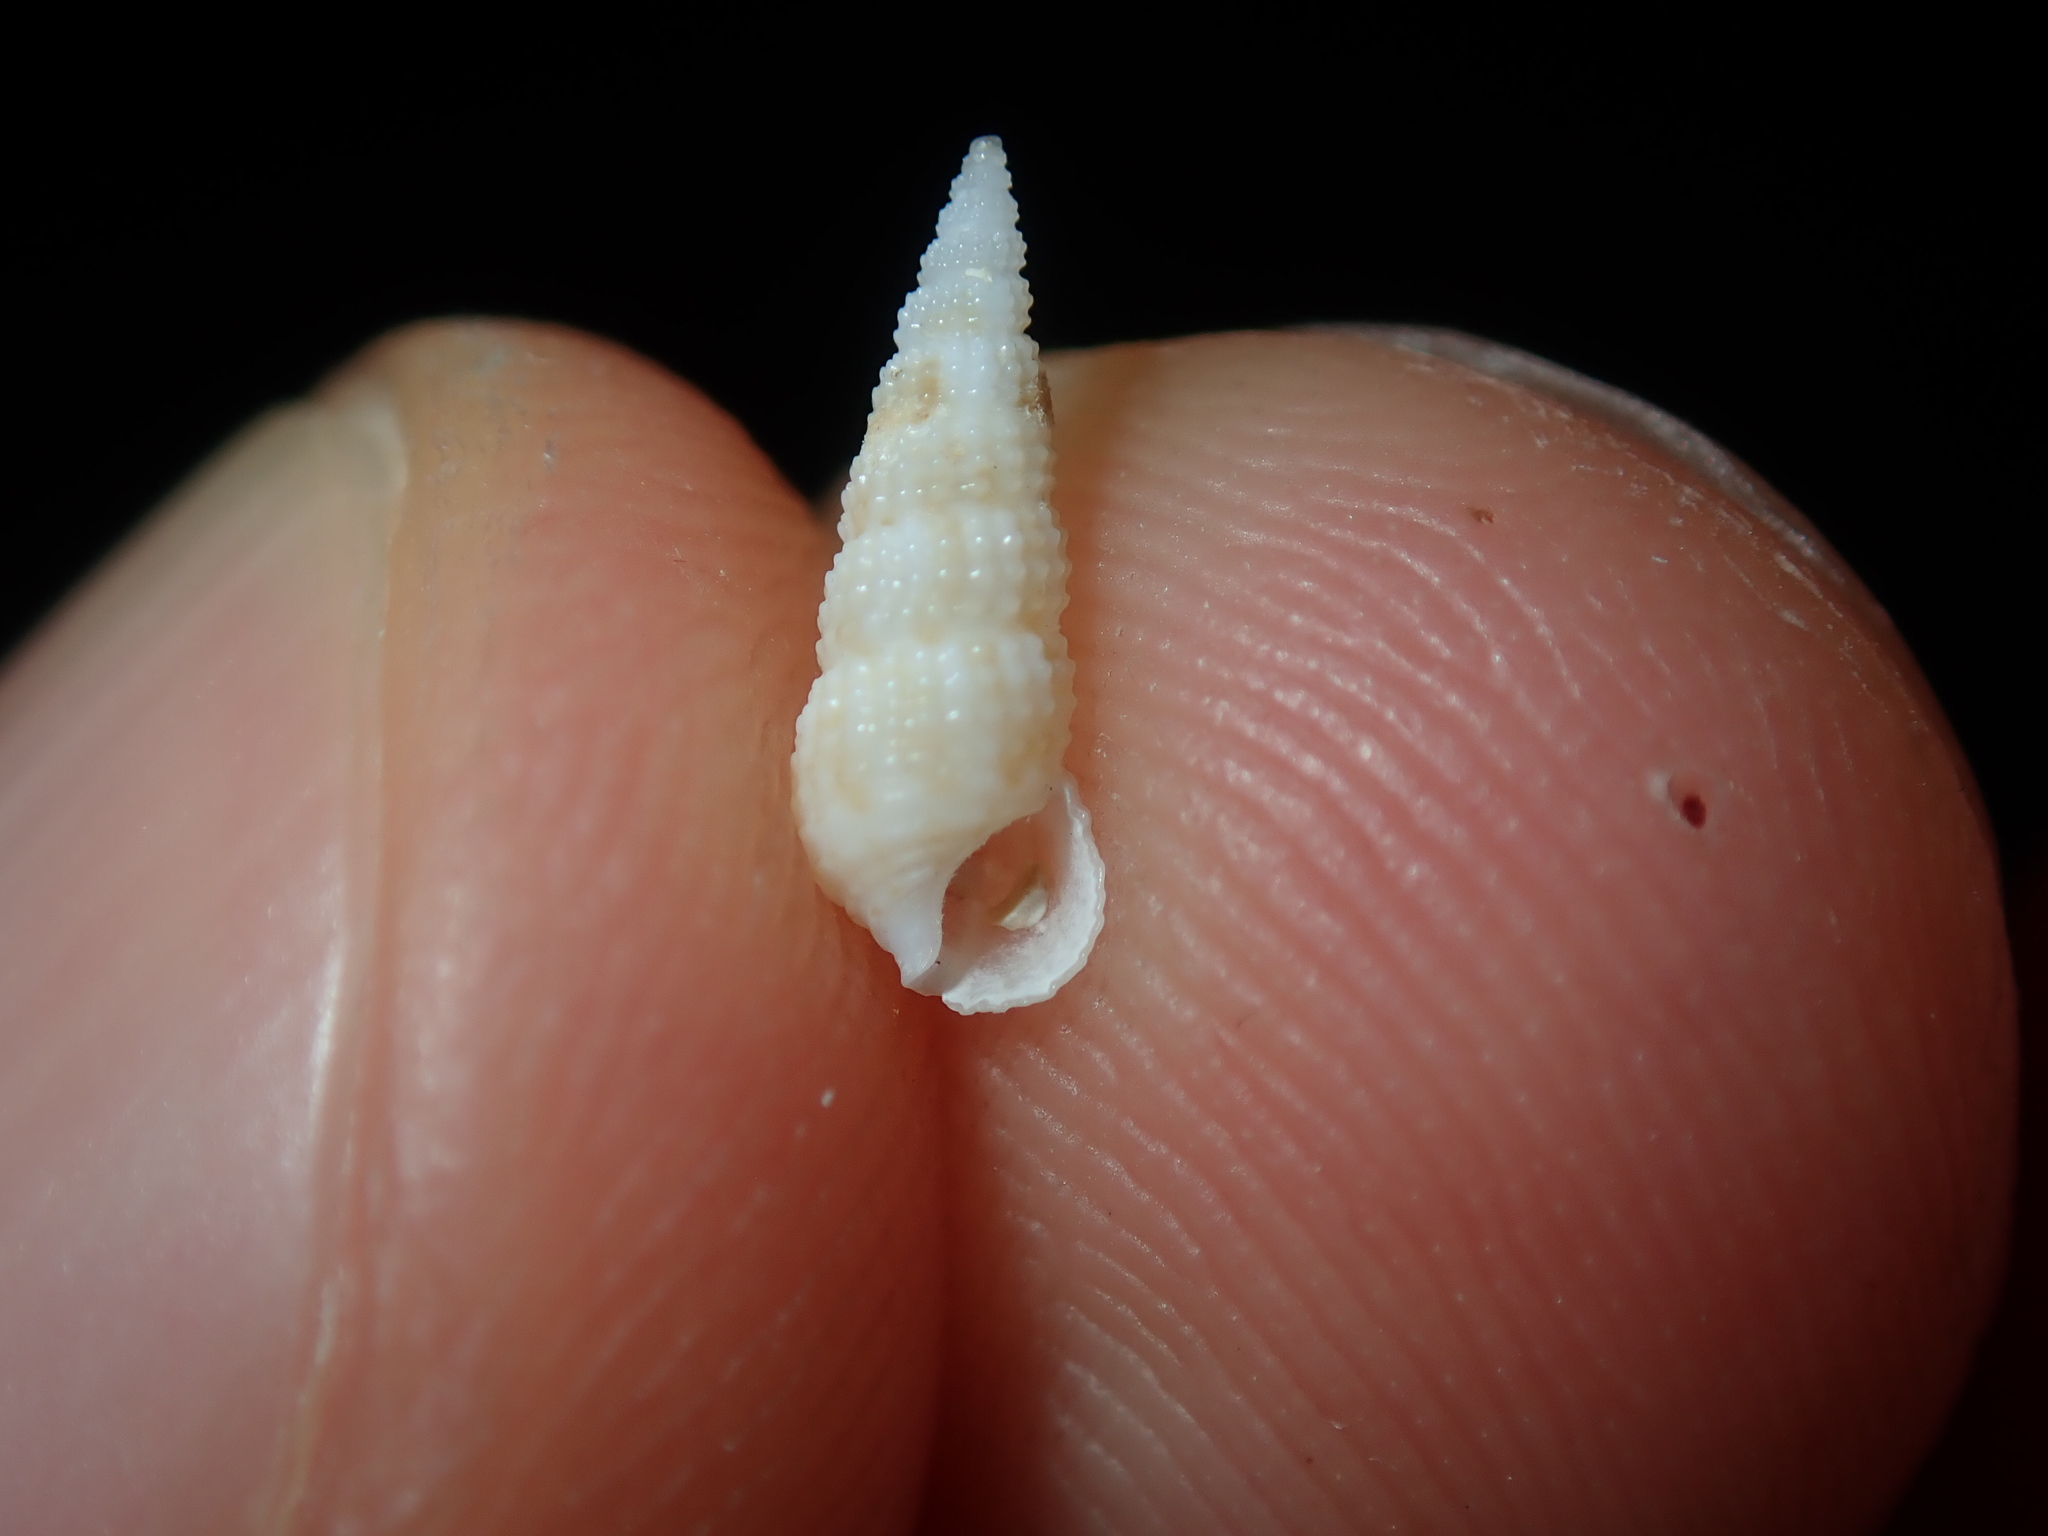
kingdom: Animalia
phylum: Mollusca
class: Gastropoda
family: Cerithiidae
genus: Cacozeliana
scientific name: Cacozeliana granarium
